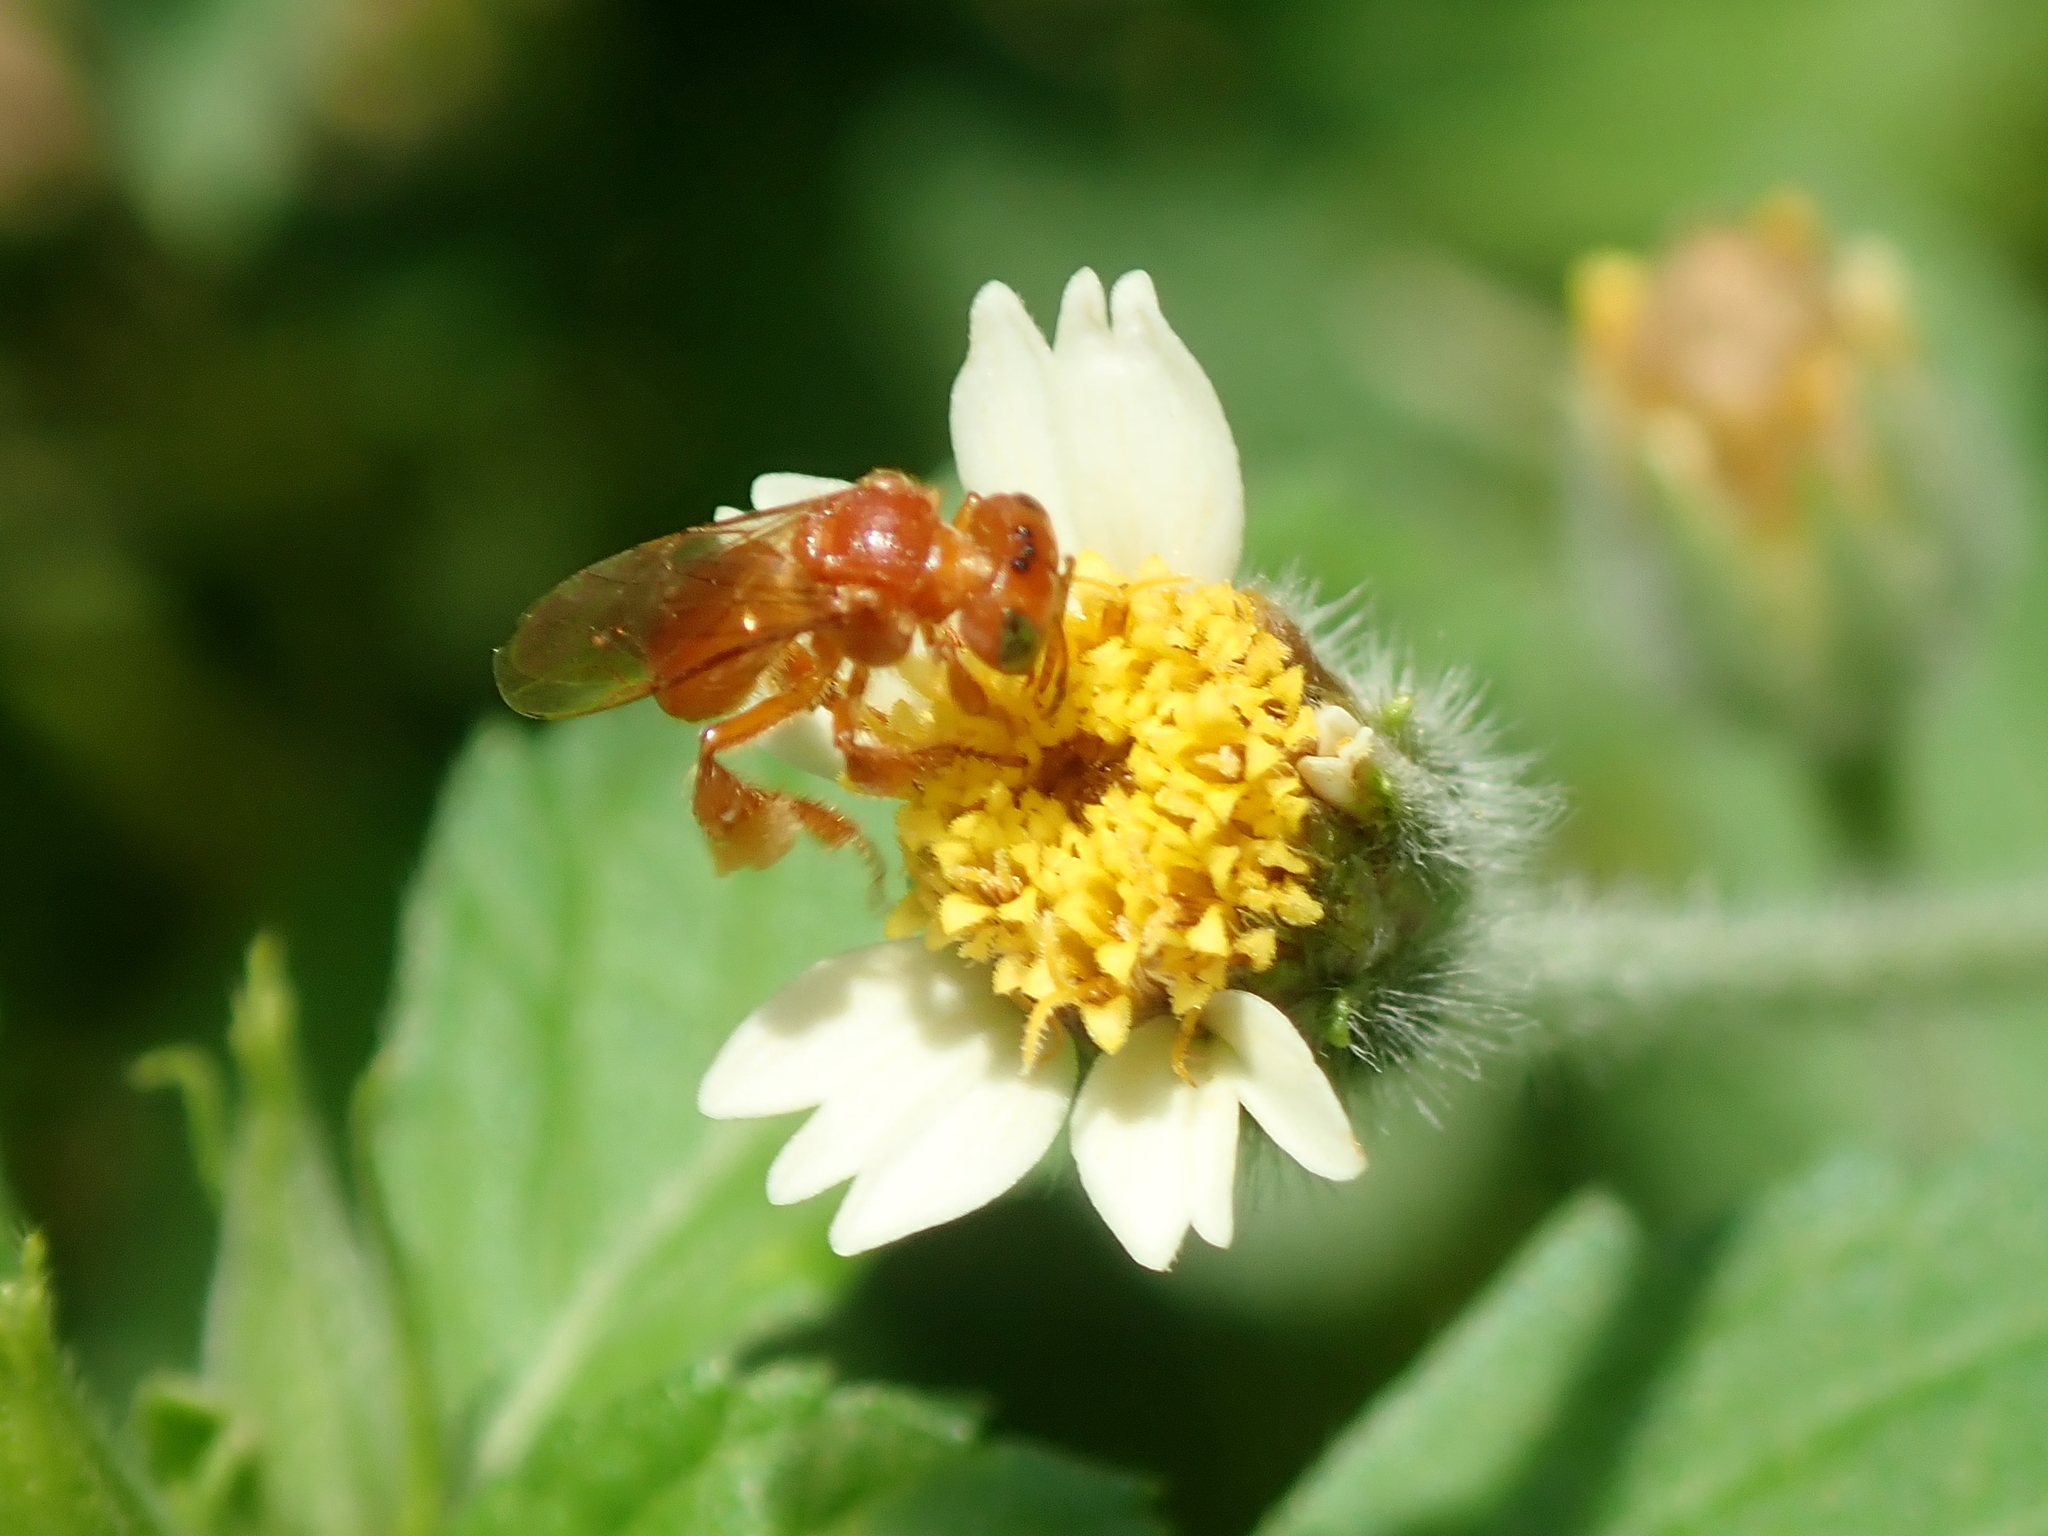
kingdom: Animalia
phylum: Arthropoda
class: Insecta
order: Hymenoptera
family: Apidae
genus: Trigona
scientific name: Trigona pallens
